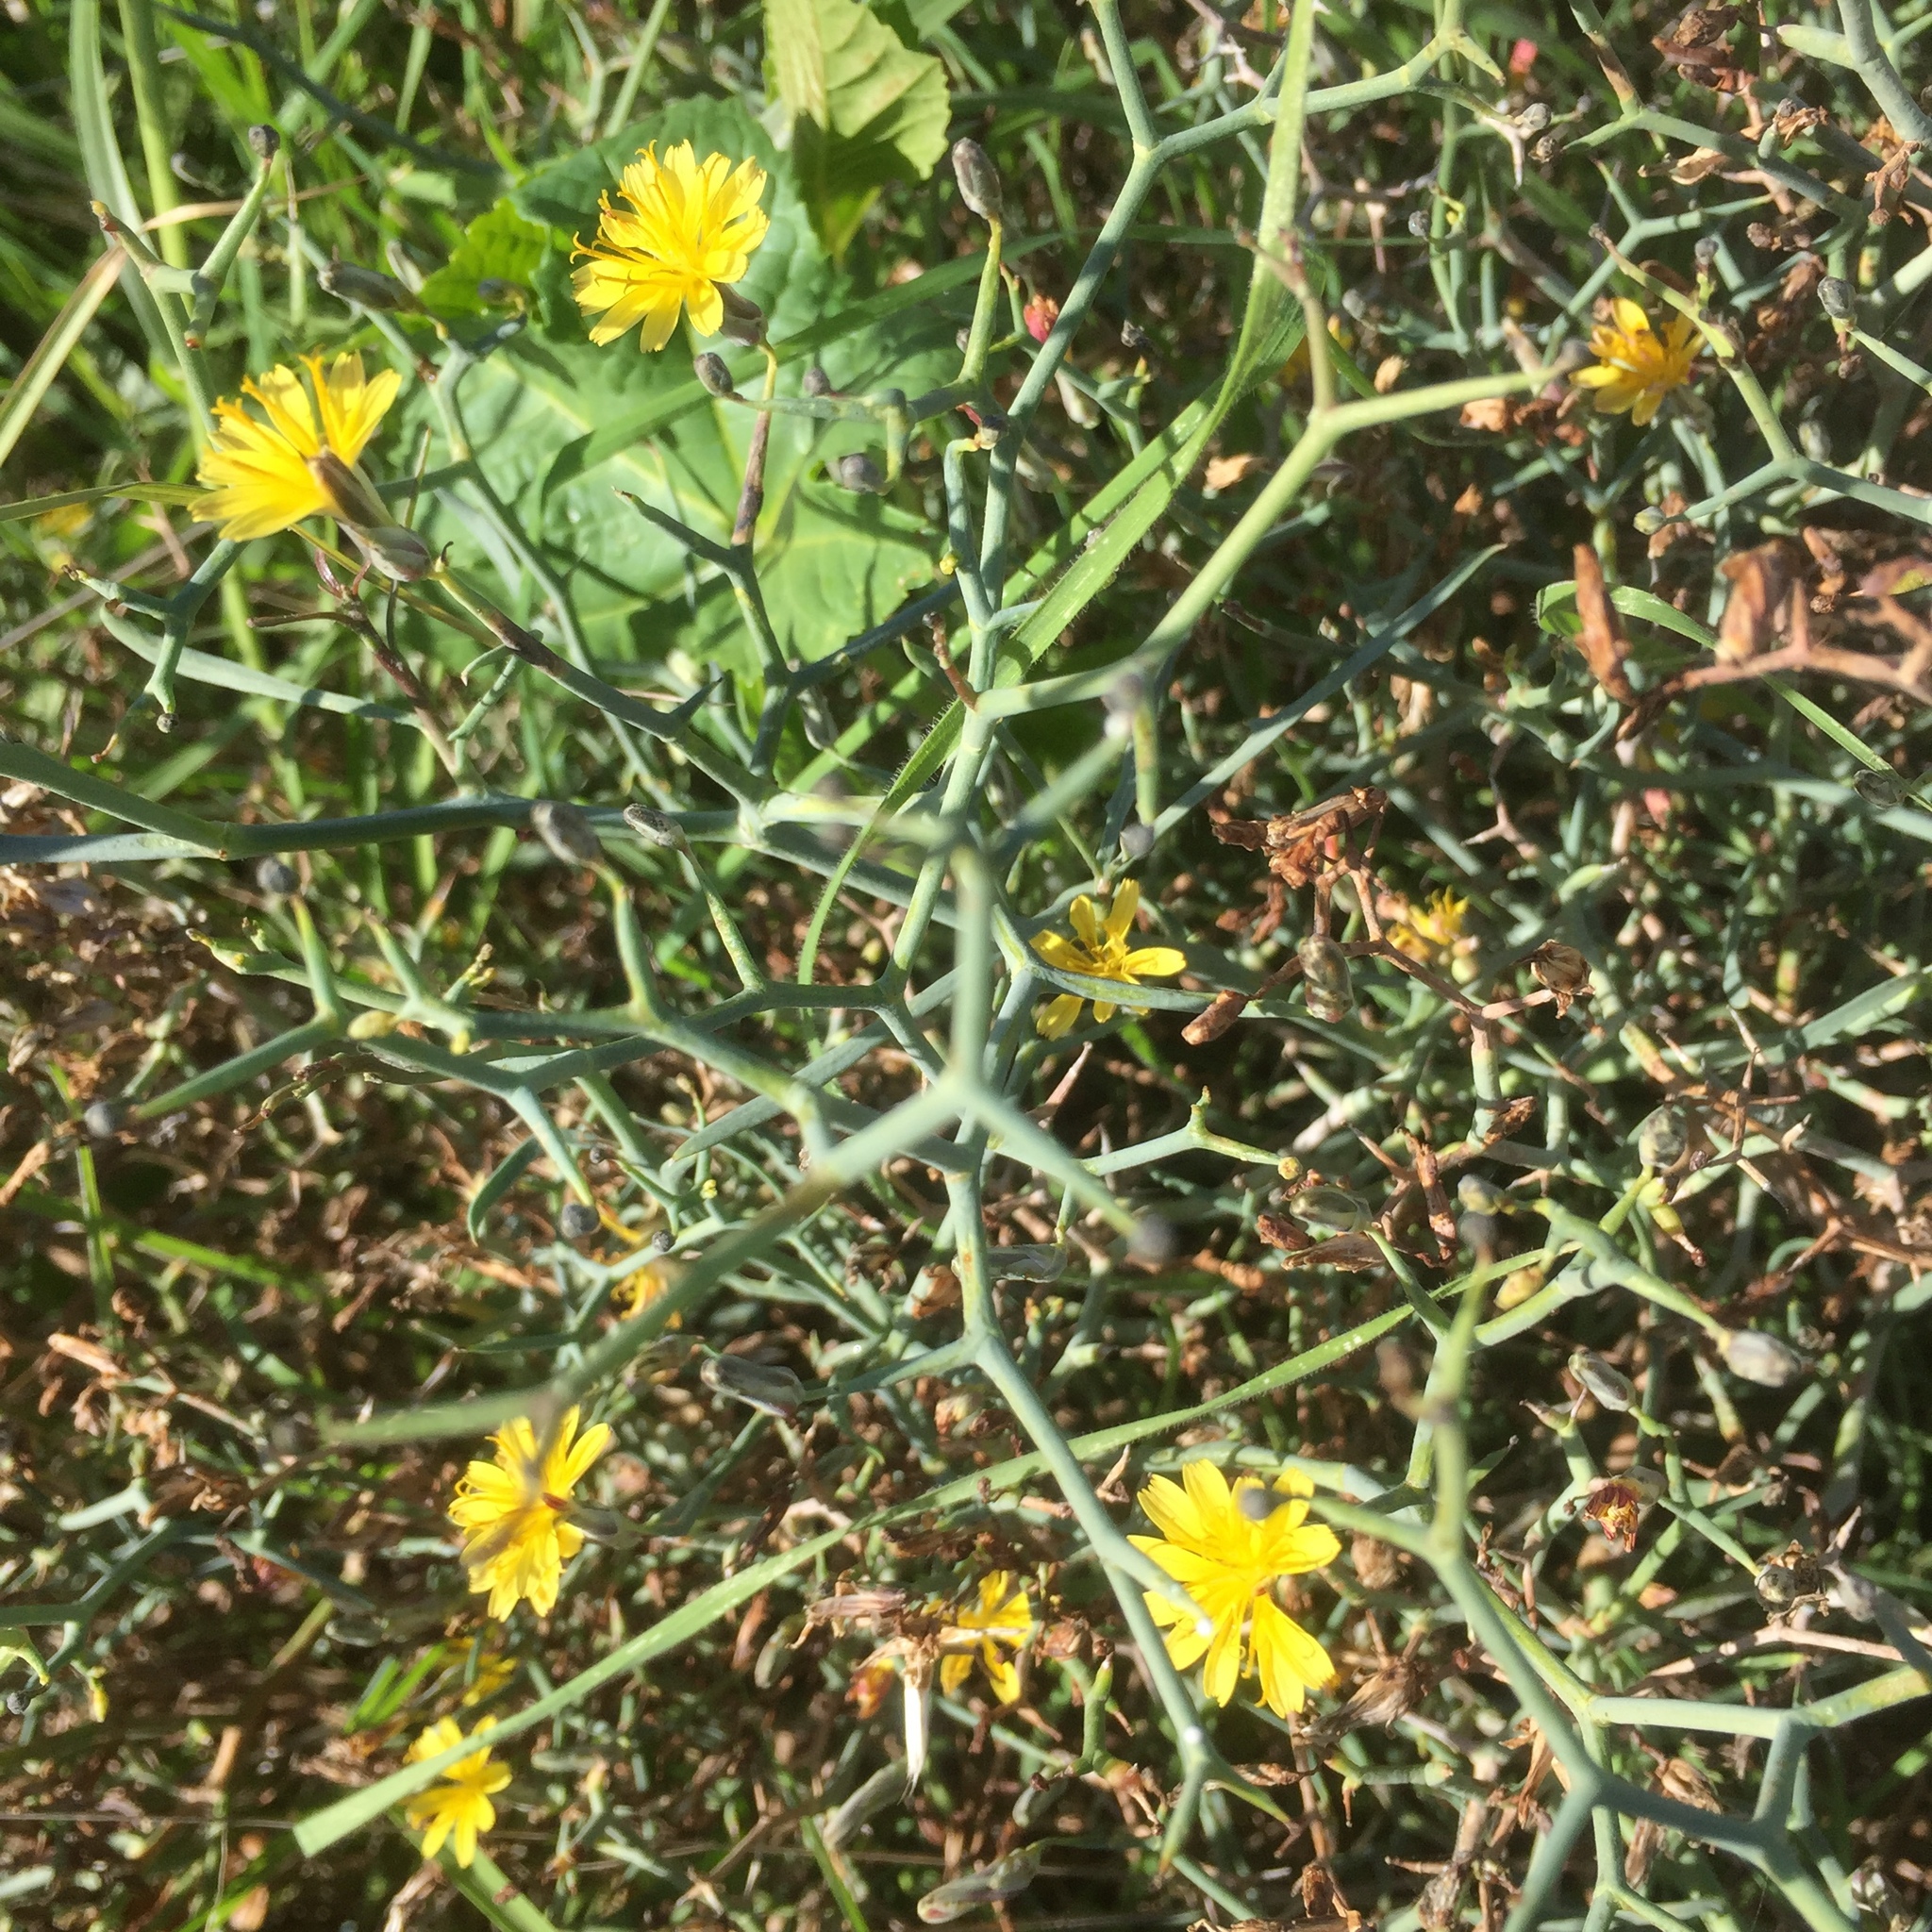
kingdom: Plantae
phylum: Tracheophyta
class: Magnoliopsida
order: Asterales
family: Asteraceae
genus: Launaea
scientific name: Launaea arborescens
